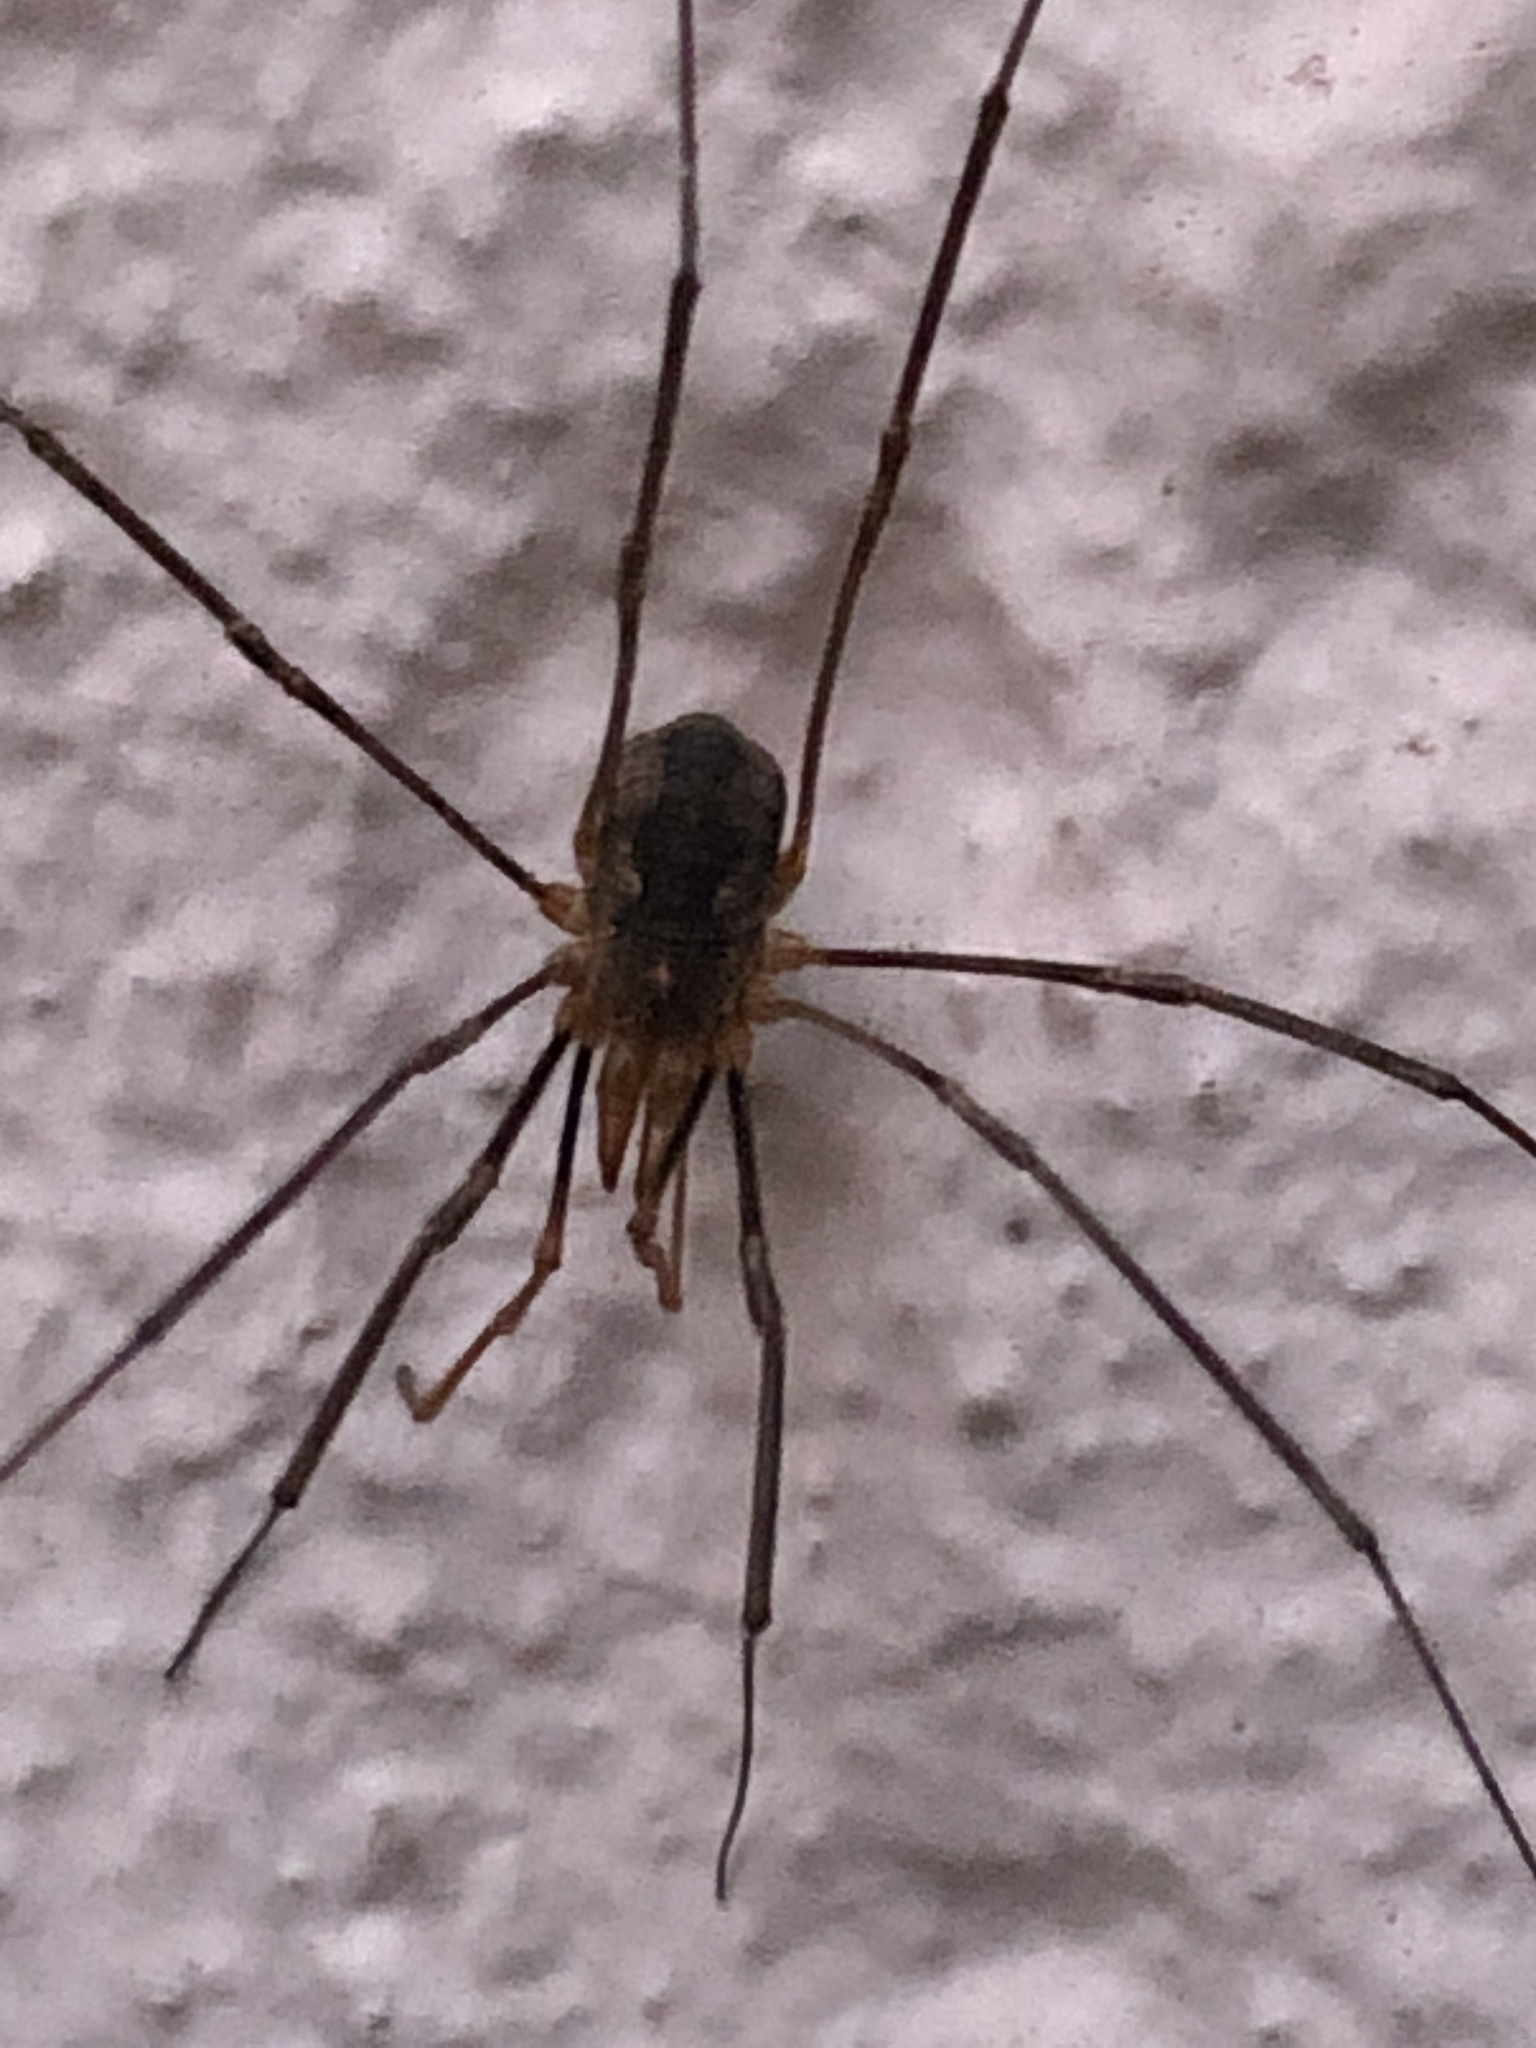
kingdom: Animalia
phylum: Arthropoda
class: Arachnida
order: Opiliones
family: Phalangiidae
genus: Phalangium
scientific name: Phalangium opilio
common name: Daddy longleg
